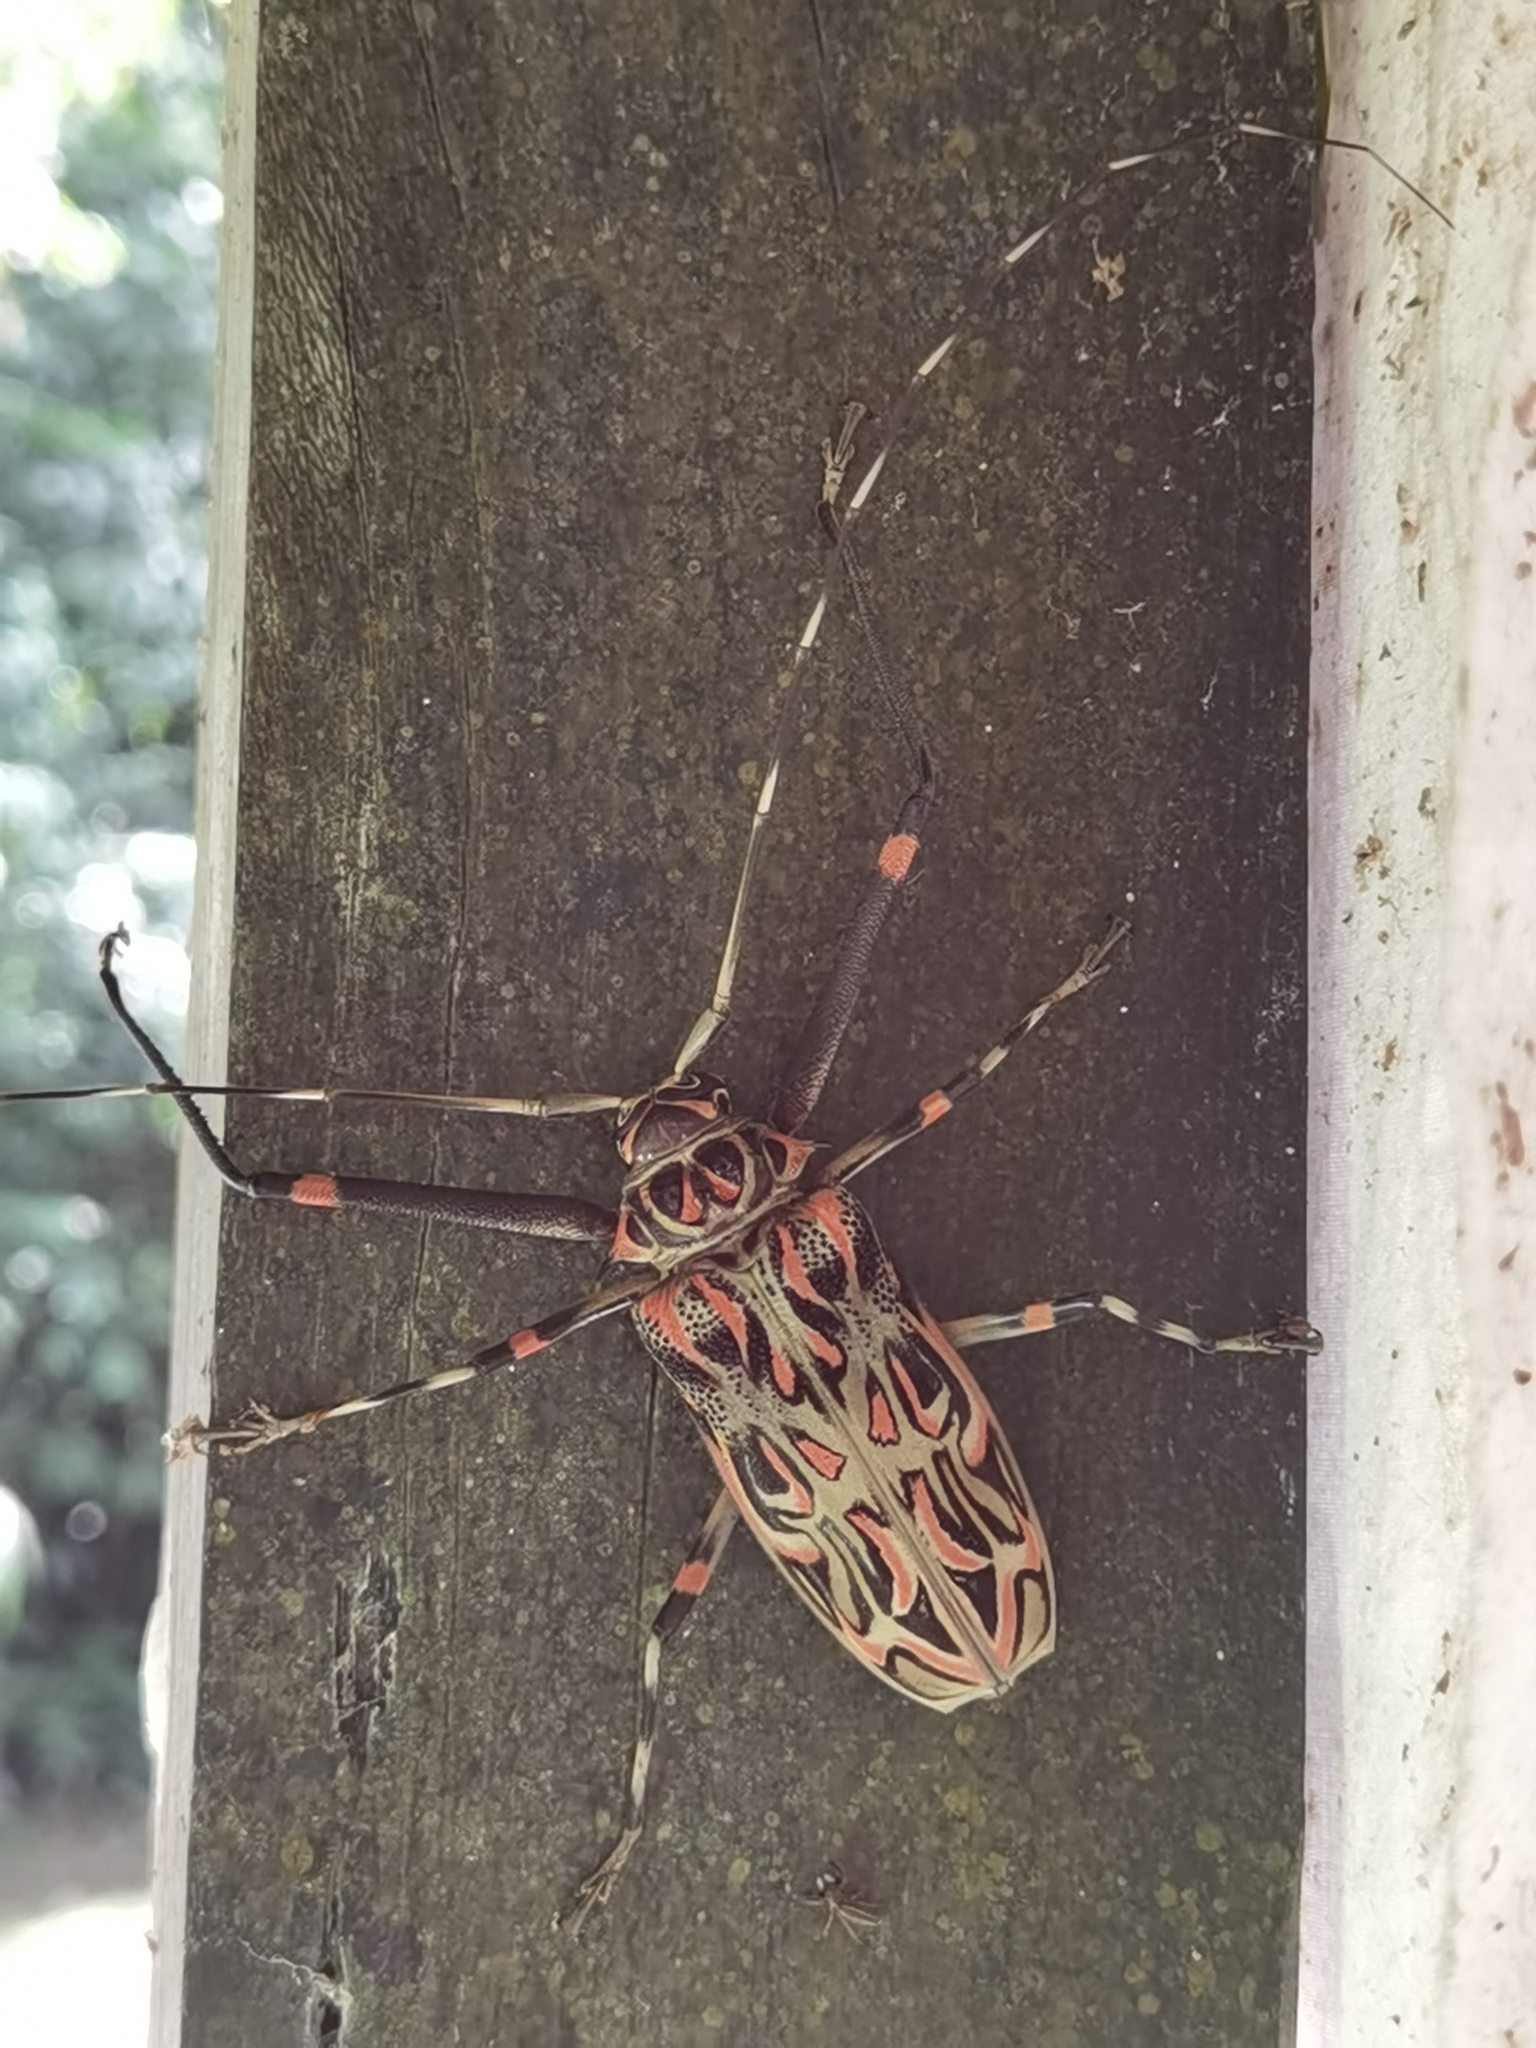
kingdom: Animalia
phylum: Arthropoda
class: Insecta
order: Coleoptera
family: Cerambycidae
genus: Acrocinus
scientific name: Acrocinus longimanus
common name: Arlequin
